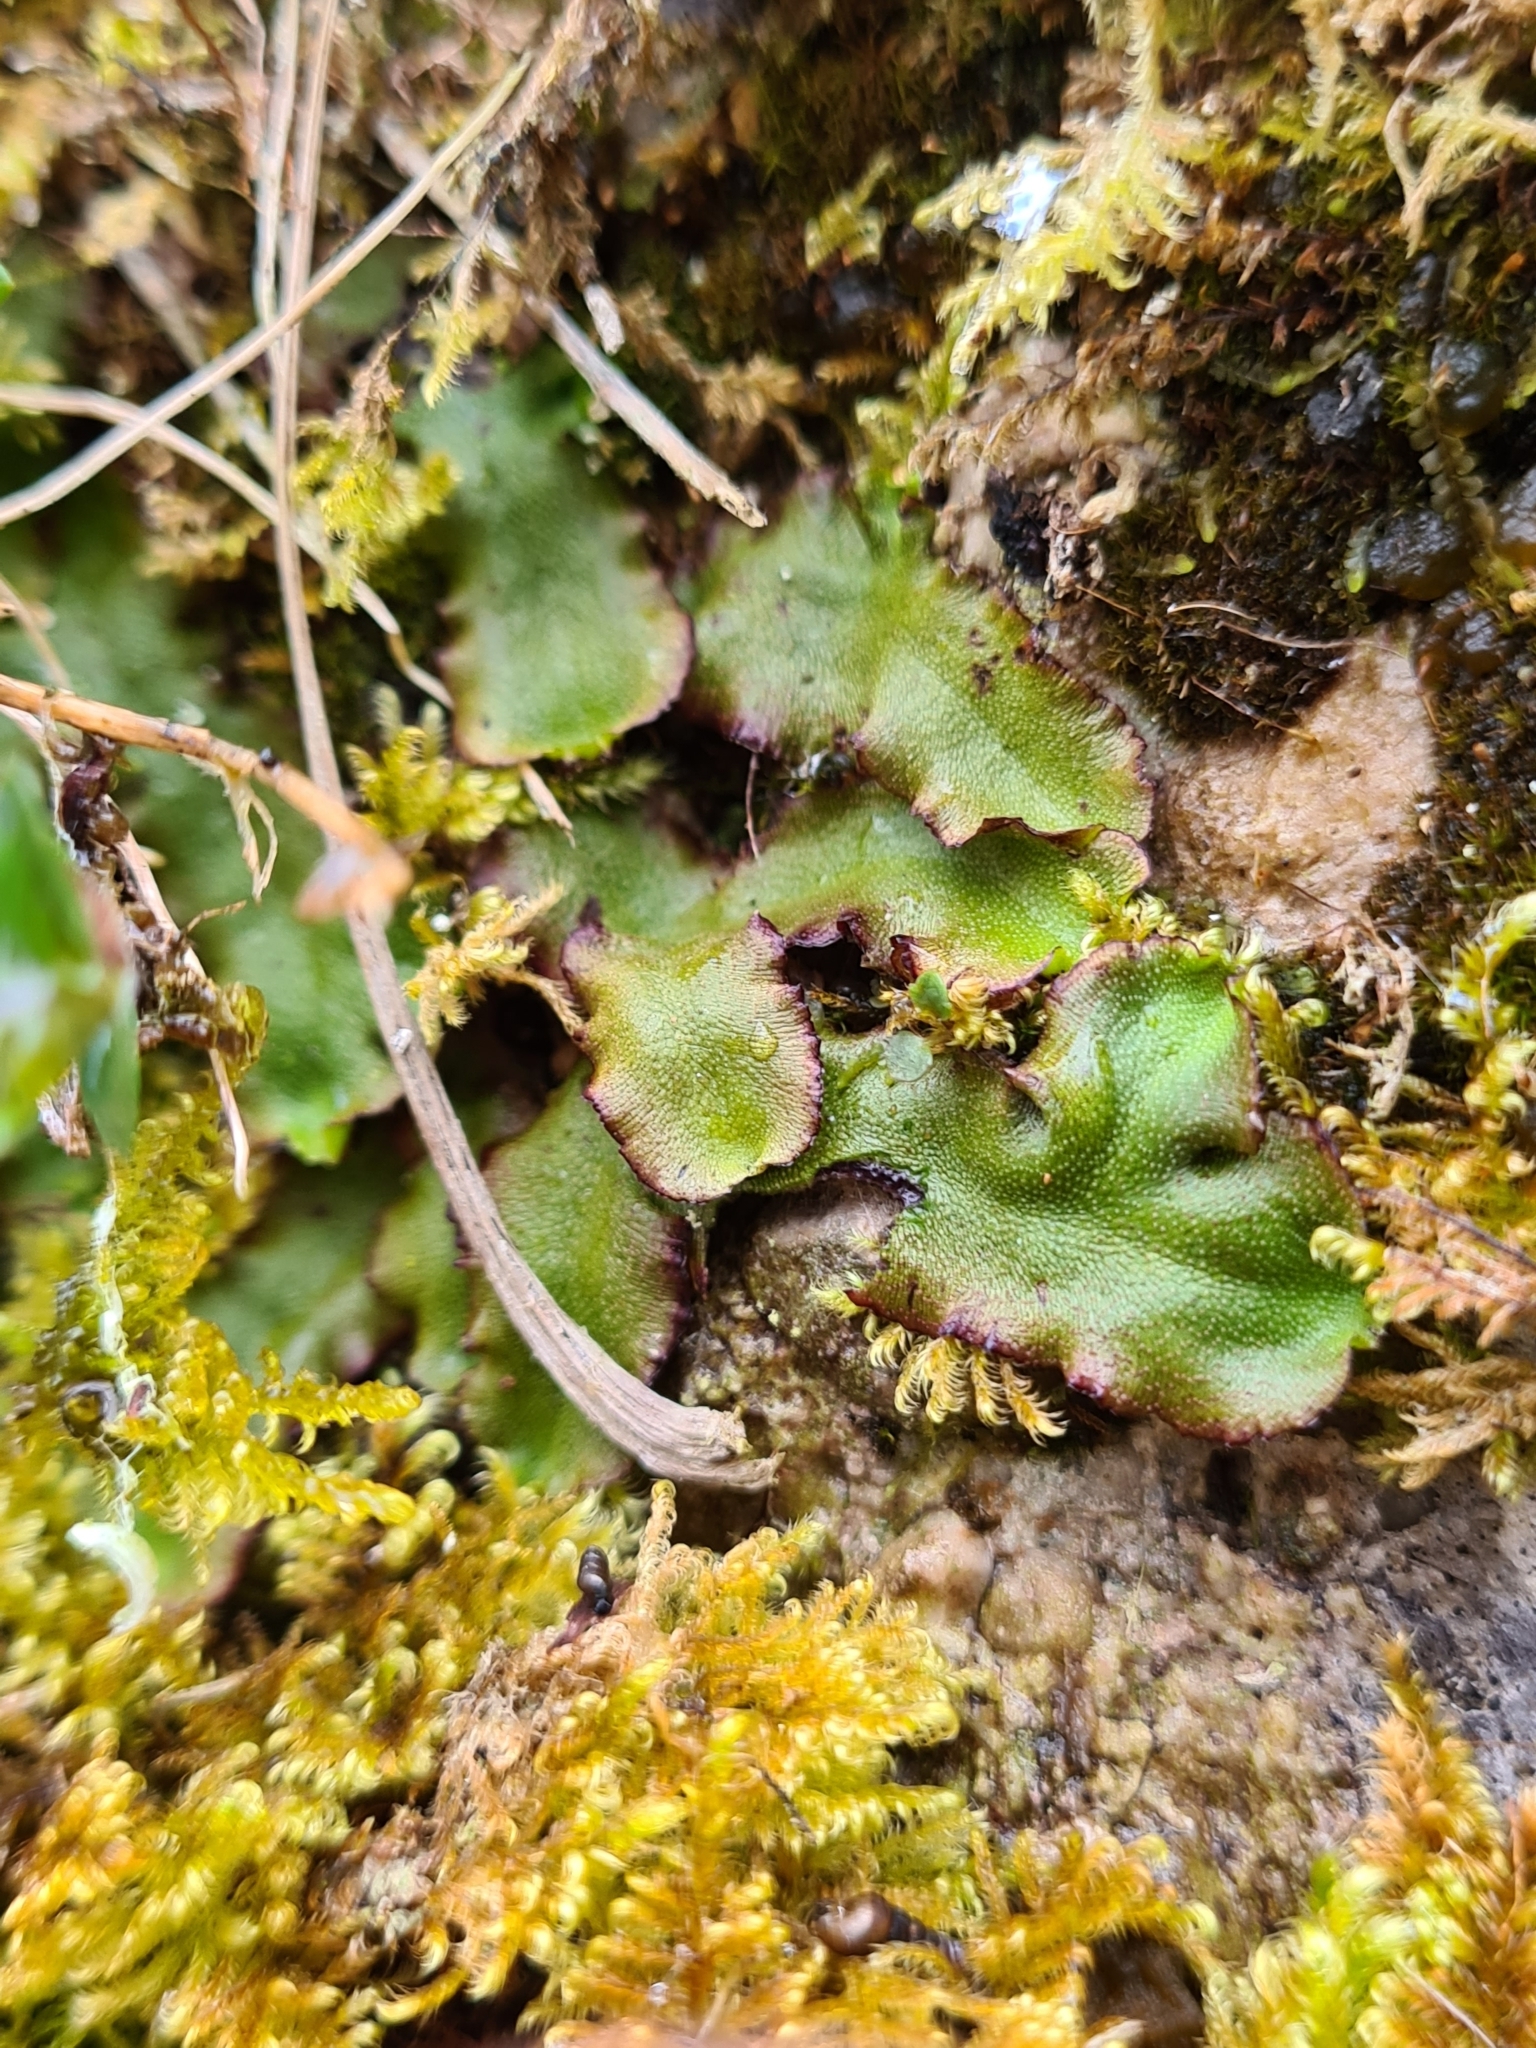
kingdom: Plantae
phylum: Marchantiophyta
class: Marchantiopsida
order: Marchantiales
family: Marchantiaceae
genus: Marchantia
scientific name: Marchantia quadrata
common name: Narrow mushroom-headed liverwort
